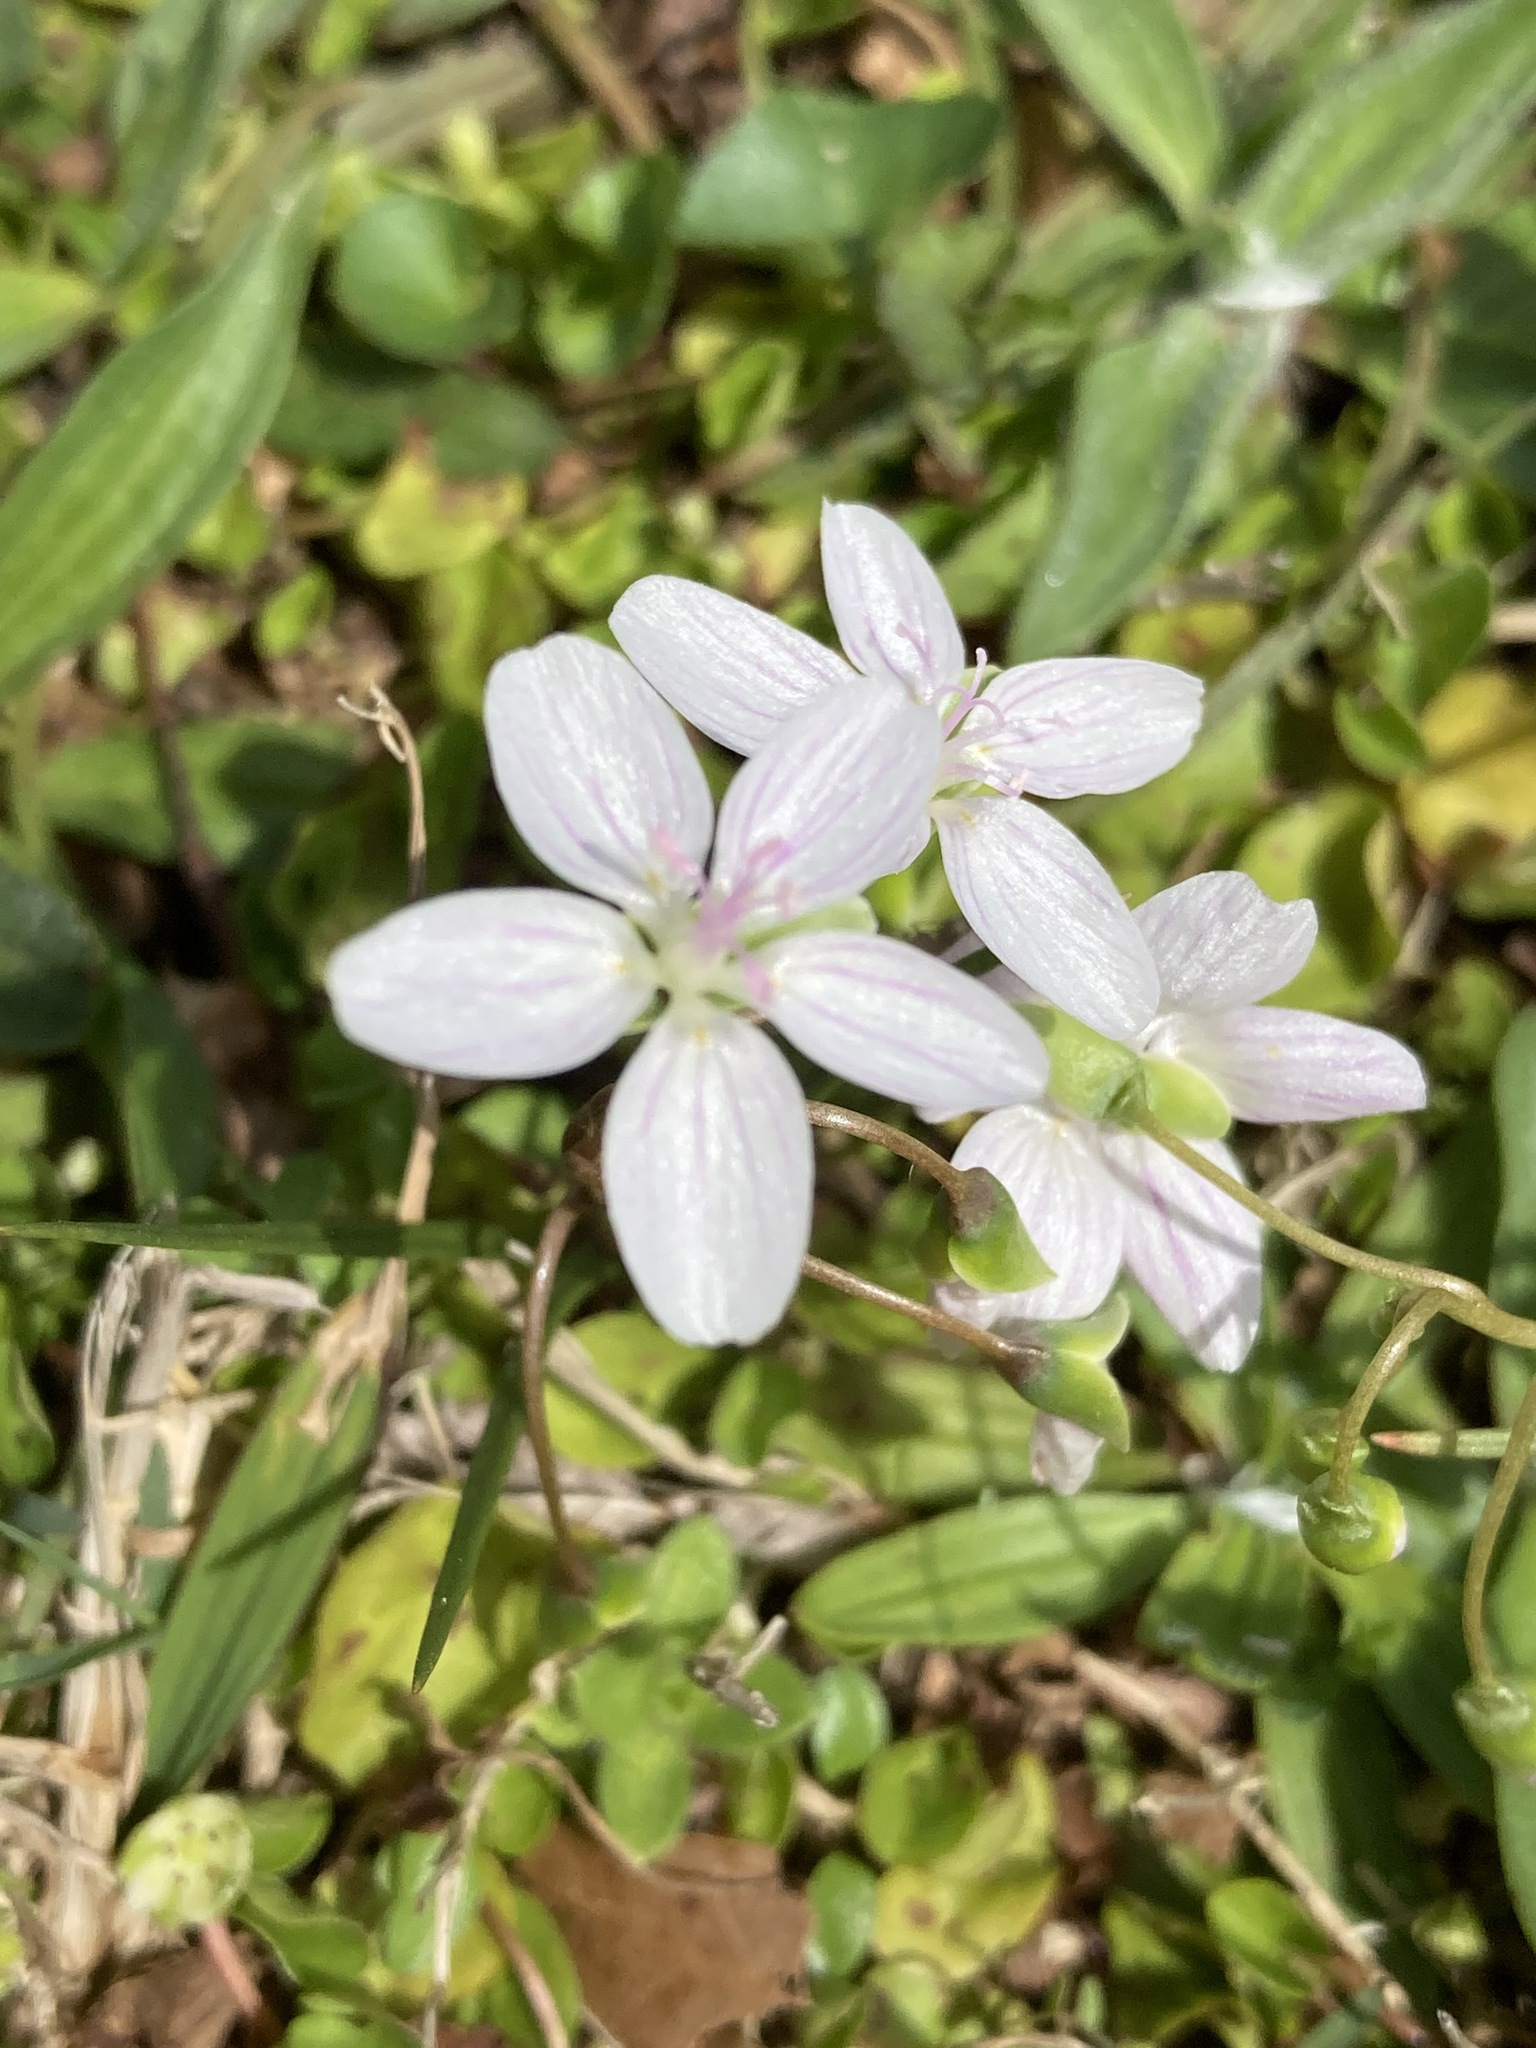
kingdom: Plantae
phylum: Tracheophyta
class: Magnoliopsida
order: Caryophyllales
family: Montiaceae
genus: Claytonia
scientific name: Claytonia virginica
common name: Virginia springbeauty
